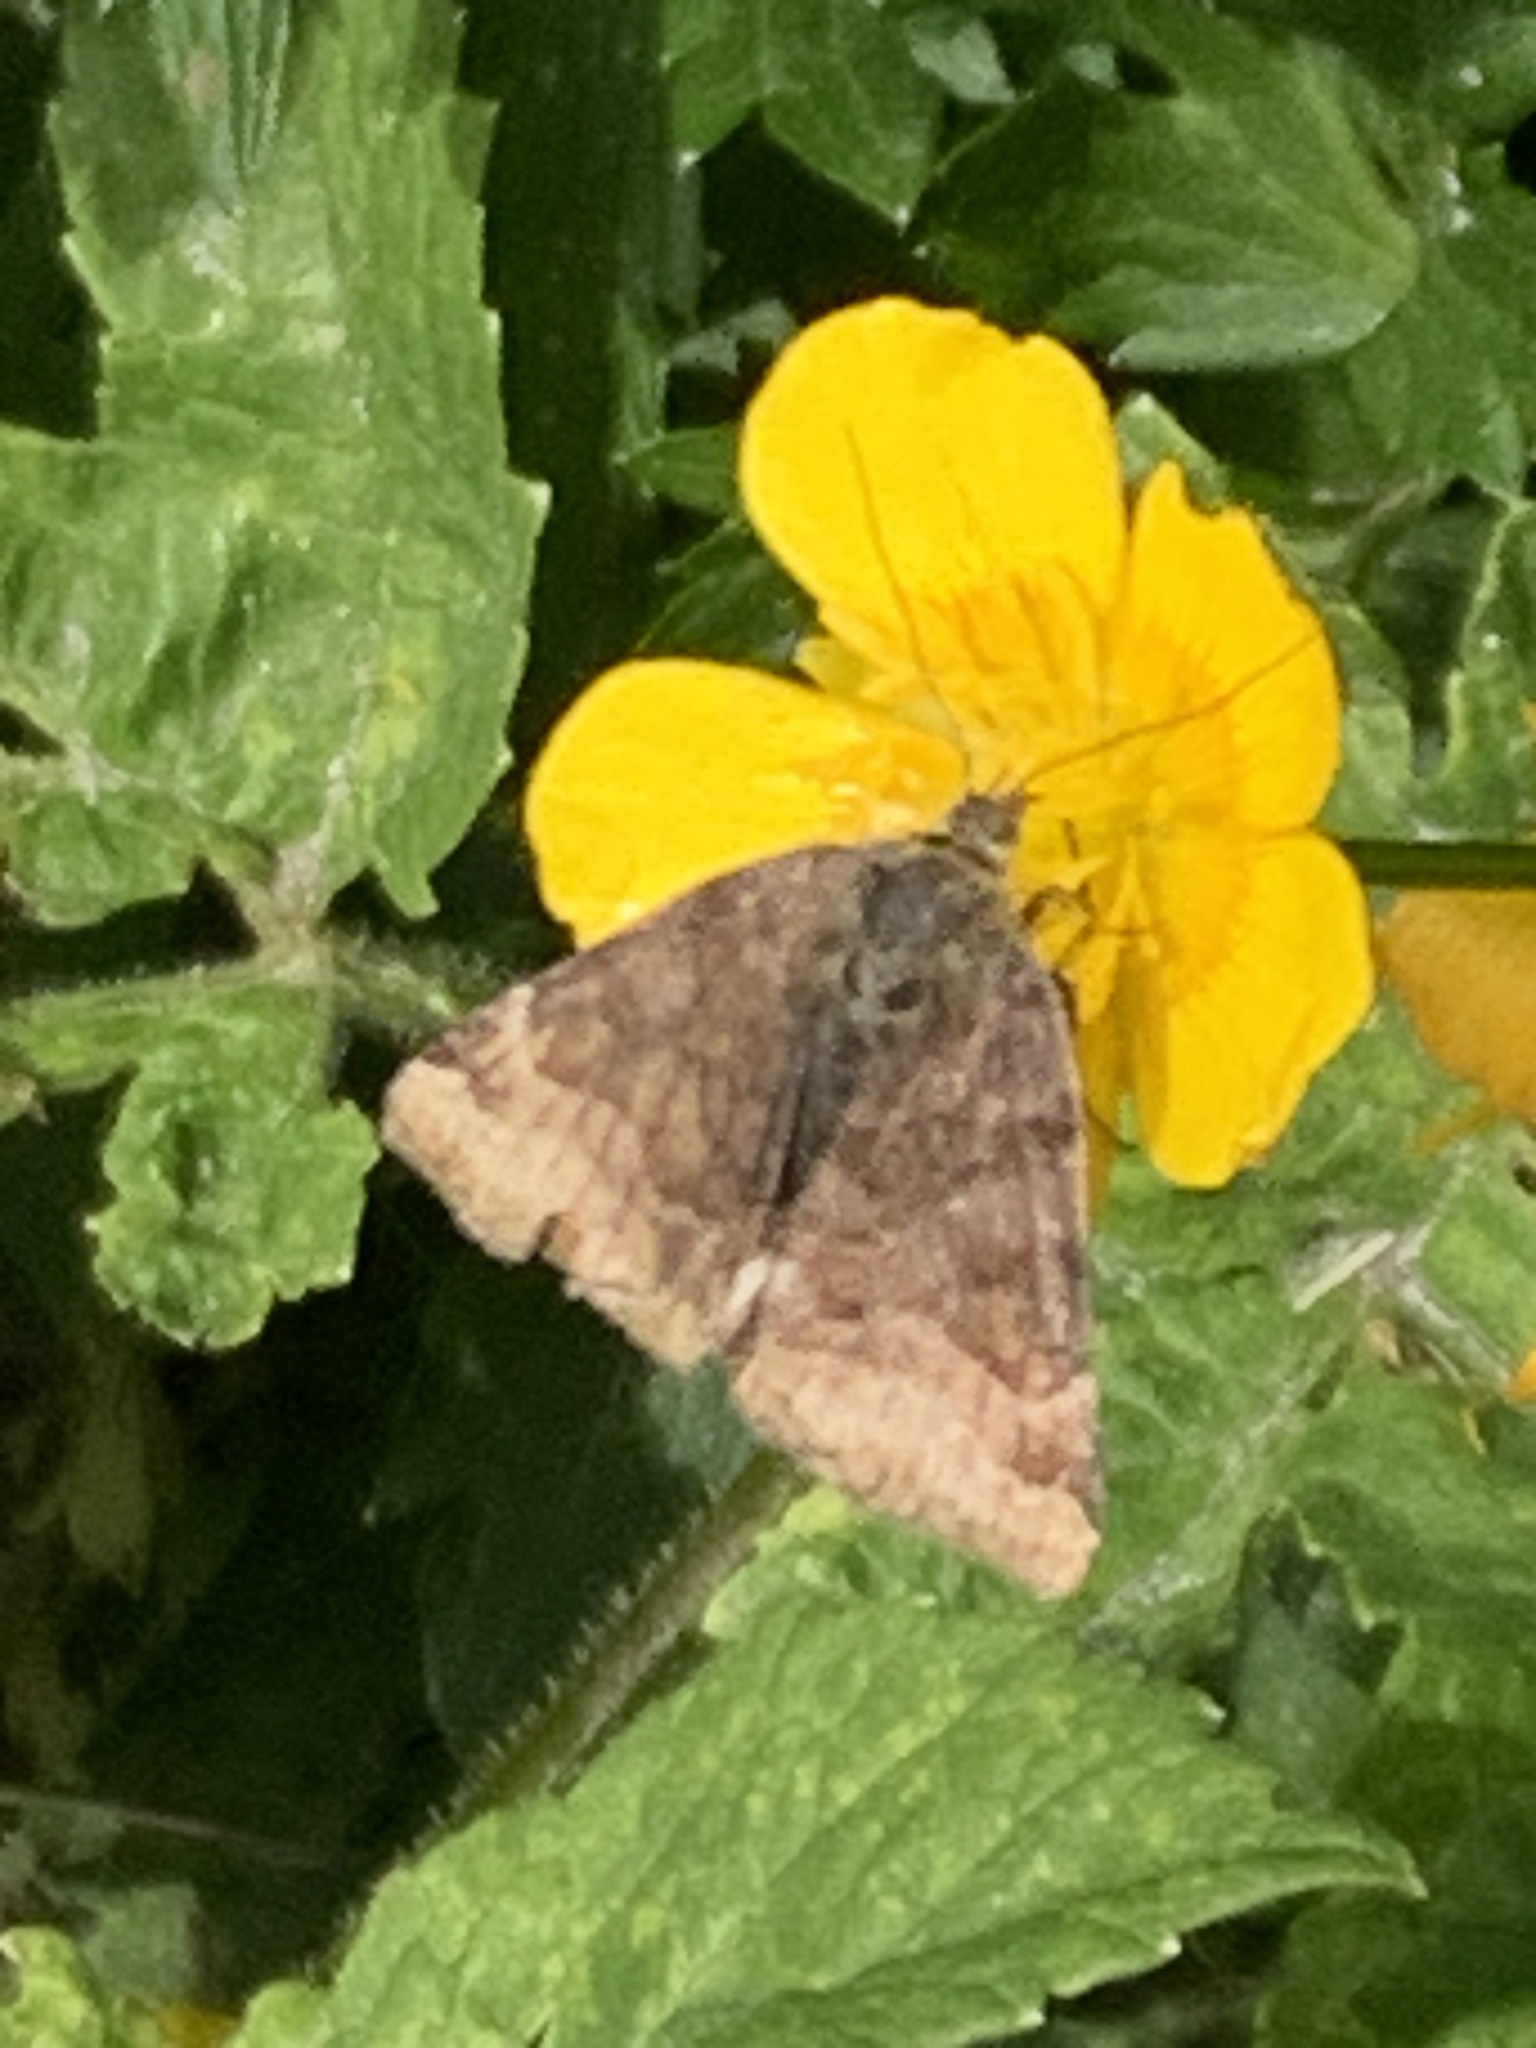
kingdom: Animalia
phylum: Arthropoda
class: Insecta
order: Lepidoptera
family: Erebidae
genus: Euclidia
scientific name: Euclidia glyphica
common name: Burnet companion
